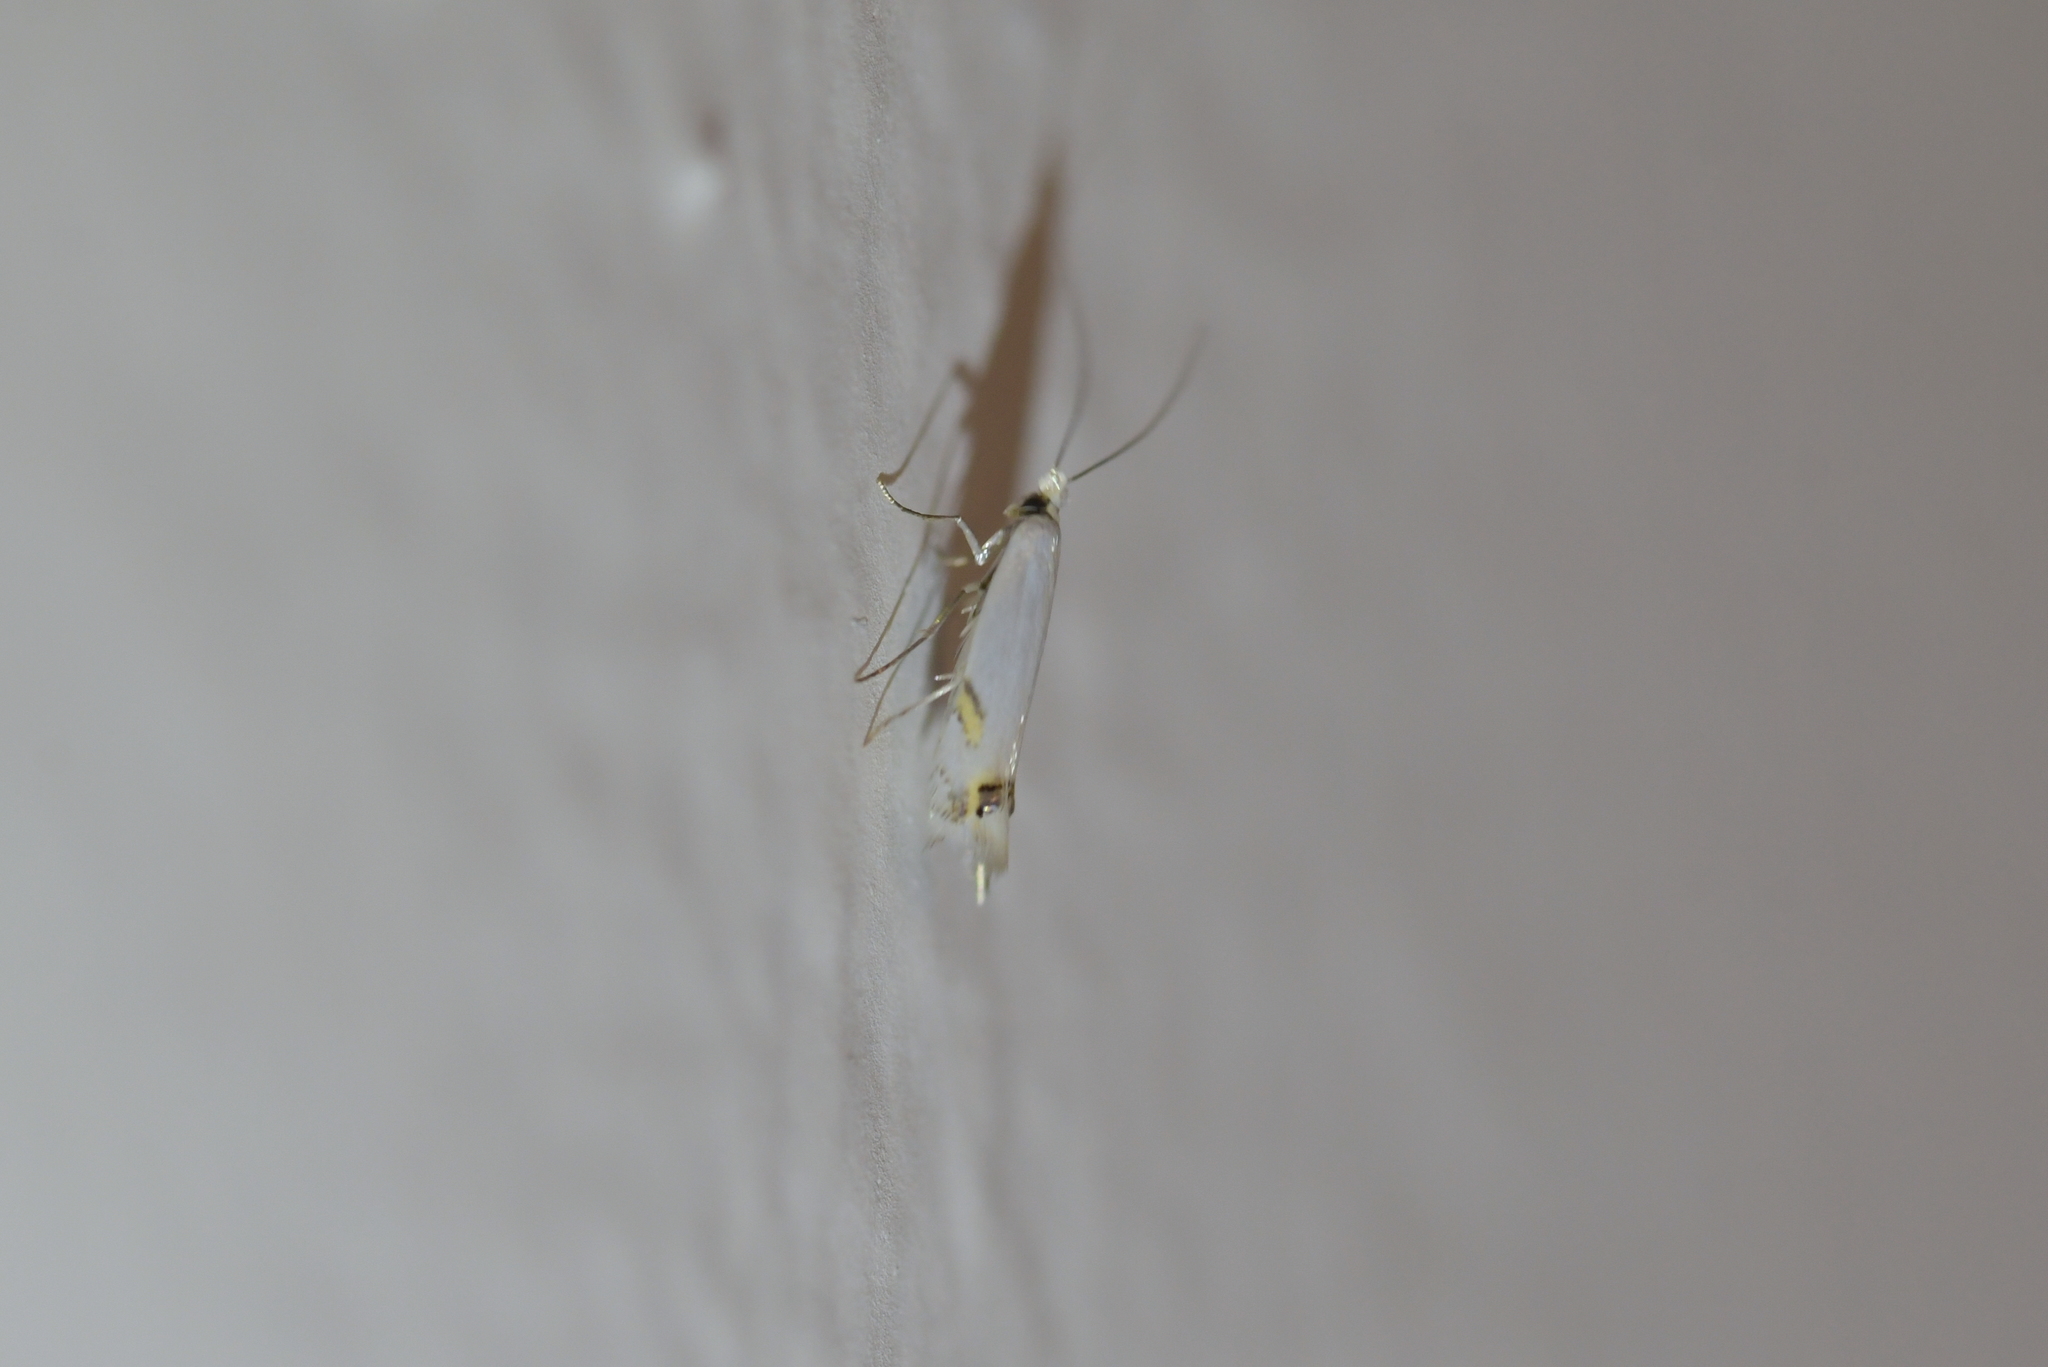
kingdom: Animalia
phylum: Arthropoda
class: Insecta
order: Lepidoptera
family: Lyonetiidae
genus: Leucoptera
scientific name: Leucoptera spartifoliella
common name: Scotch broom twig miner
